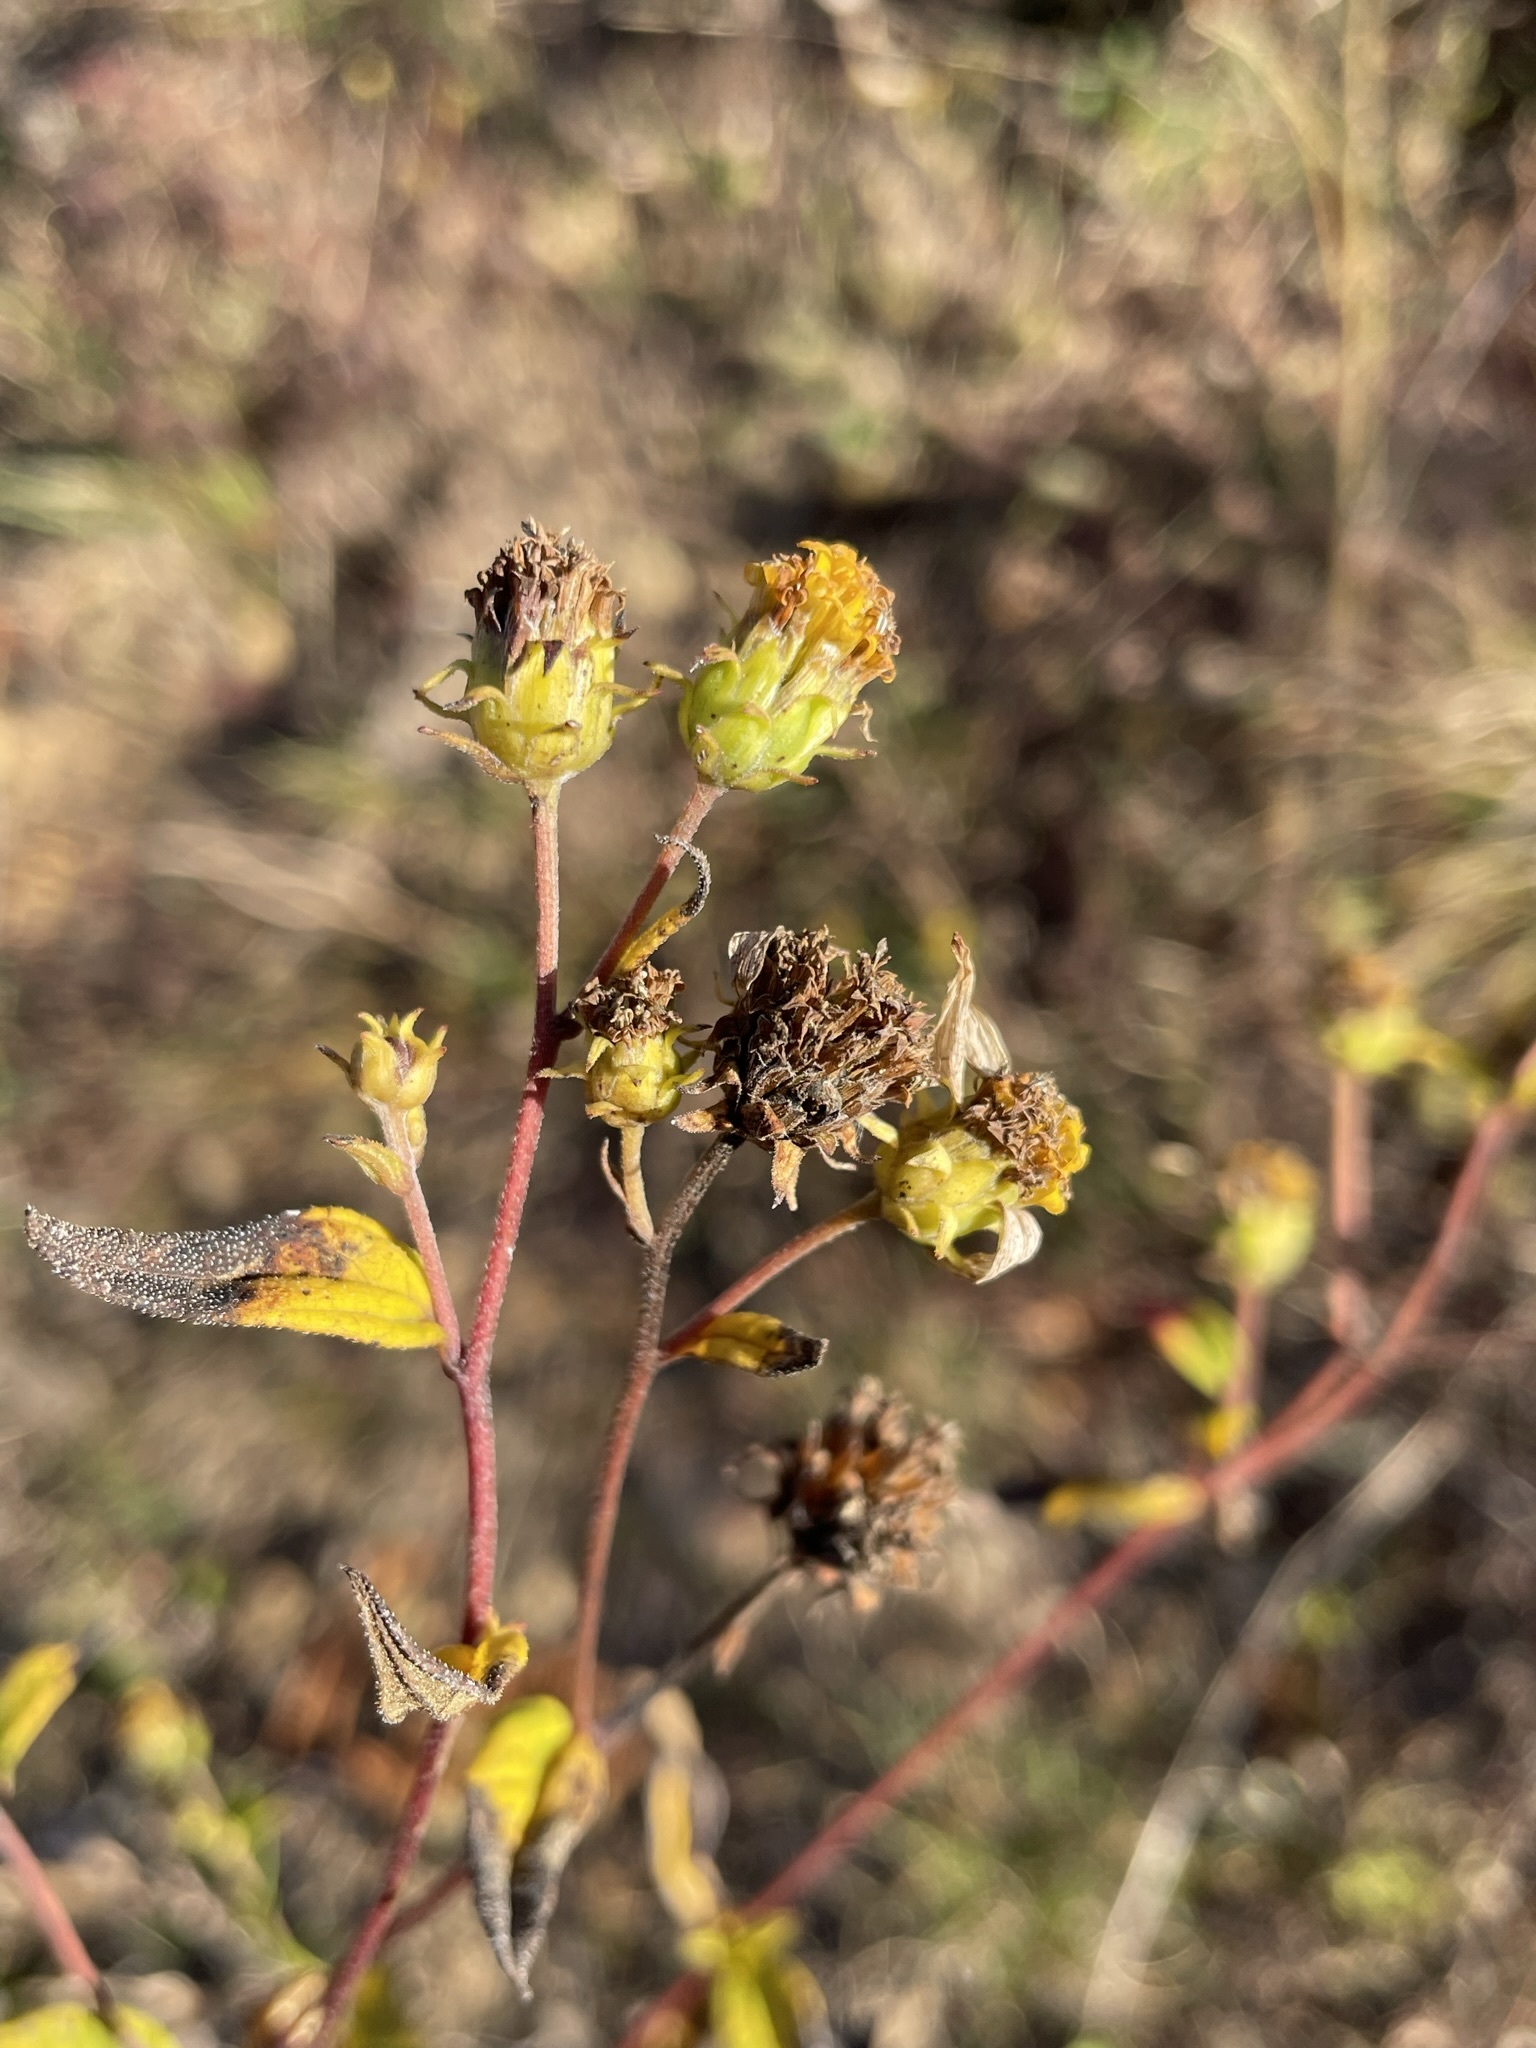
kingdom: Plantae
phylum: Tracheophyta
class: Magnoliopsida
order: Asterales
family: Asteraceae
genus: Helianthus
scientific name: Helianthus microcephalus
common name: Woodland sunflower
